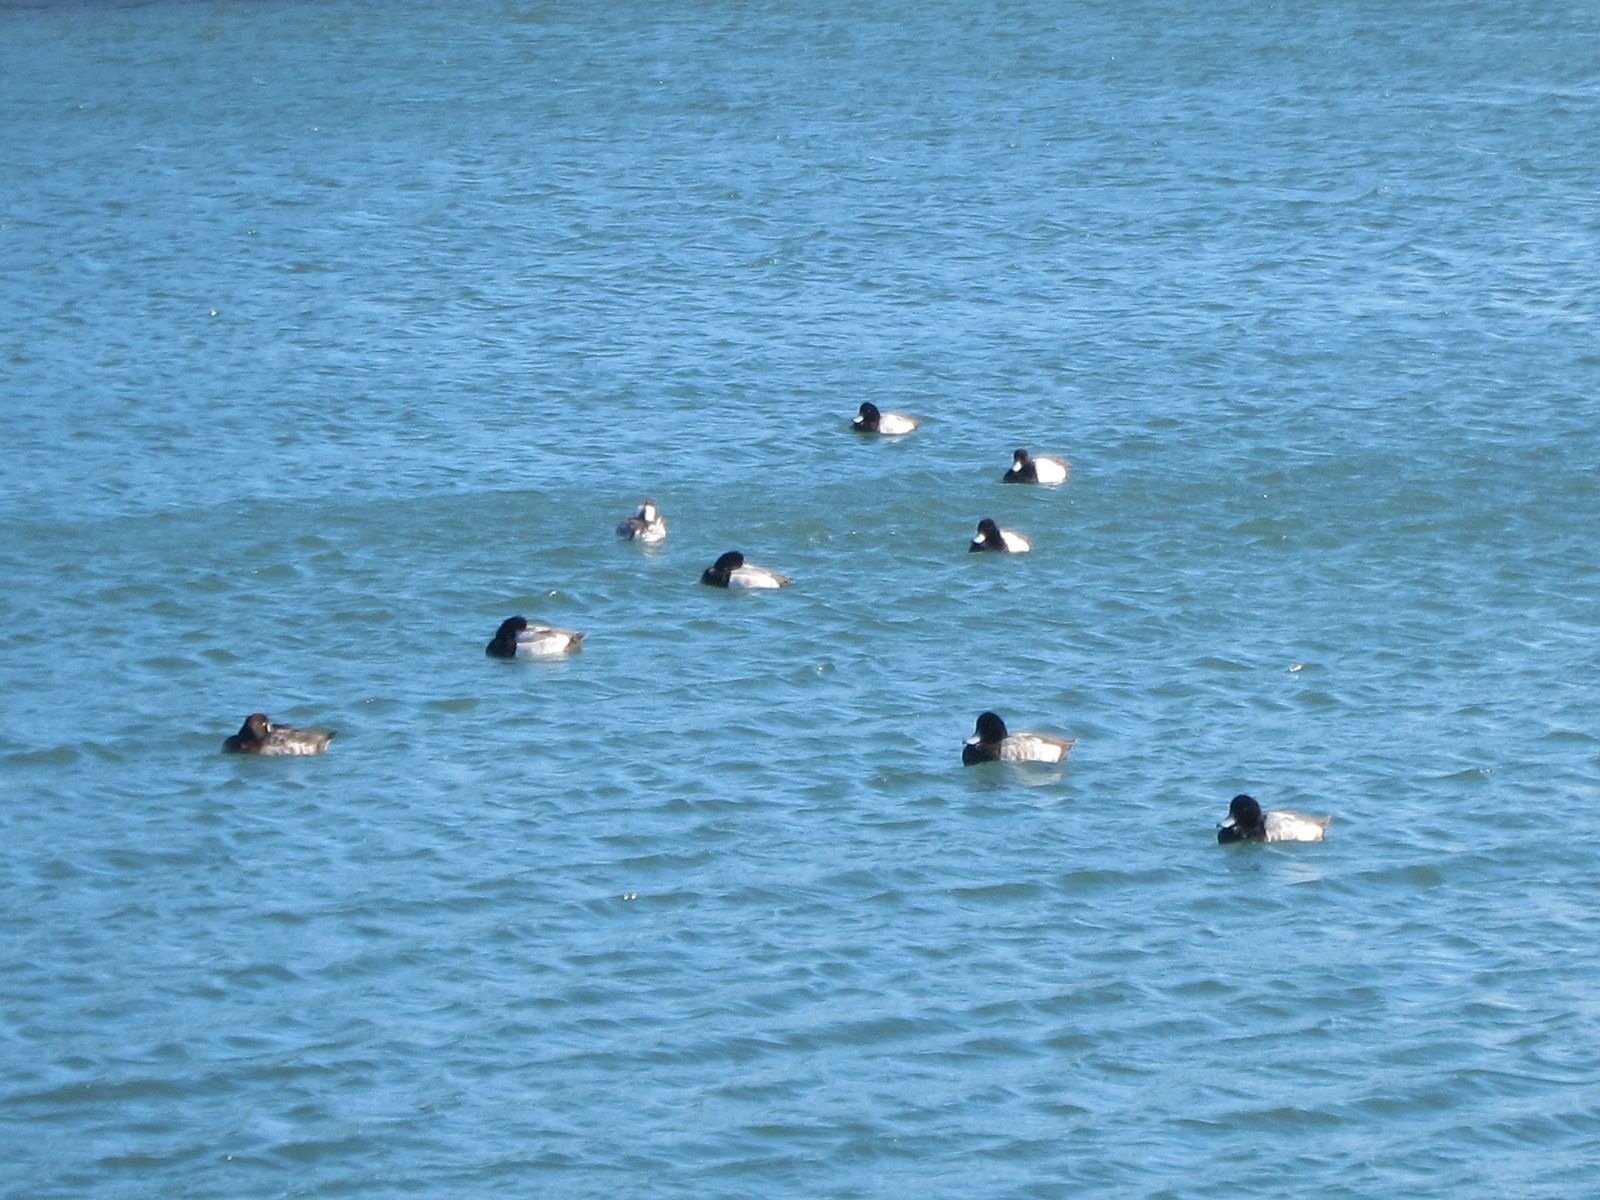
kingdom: Animalia
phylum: Chordata
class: Aves
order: Anseriformes
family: Anatidae
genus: Aythya
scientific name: Aythya marila
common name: Greater scaup
